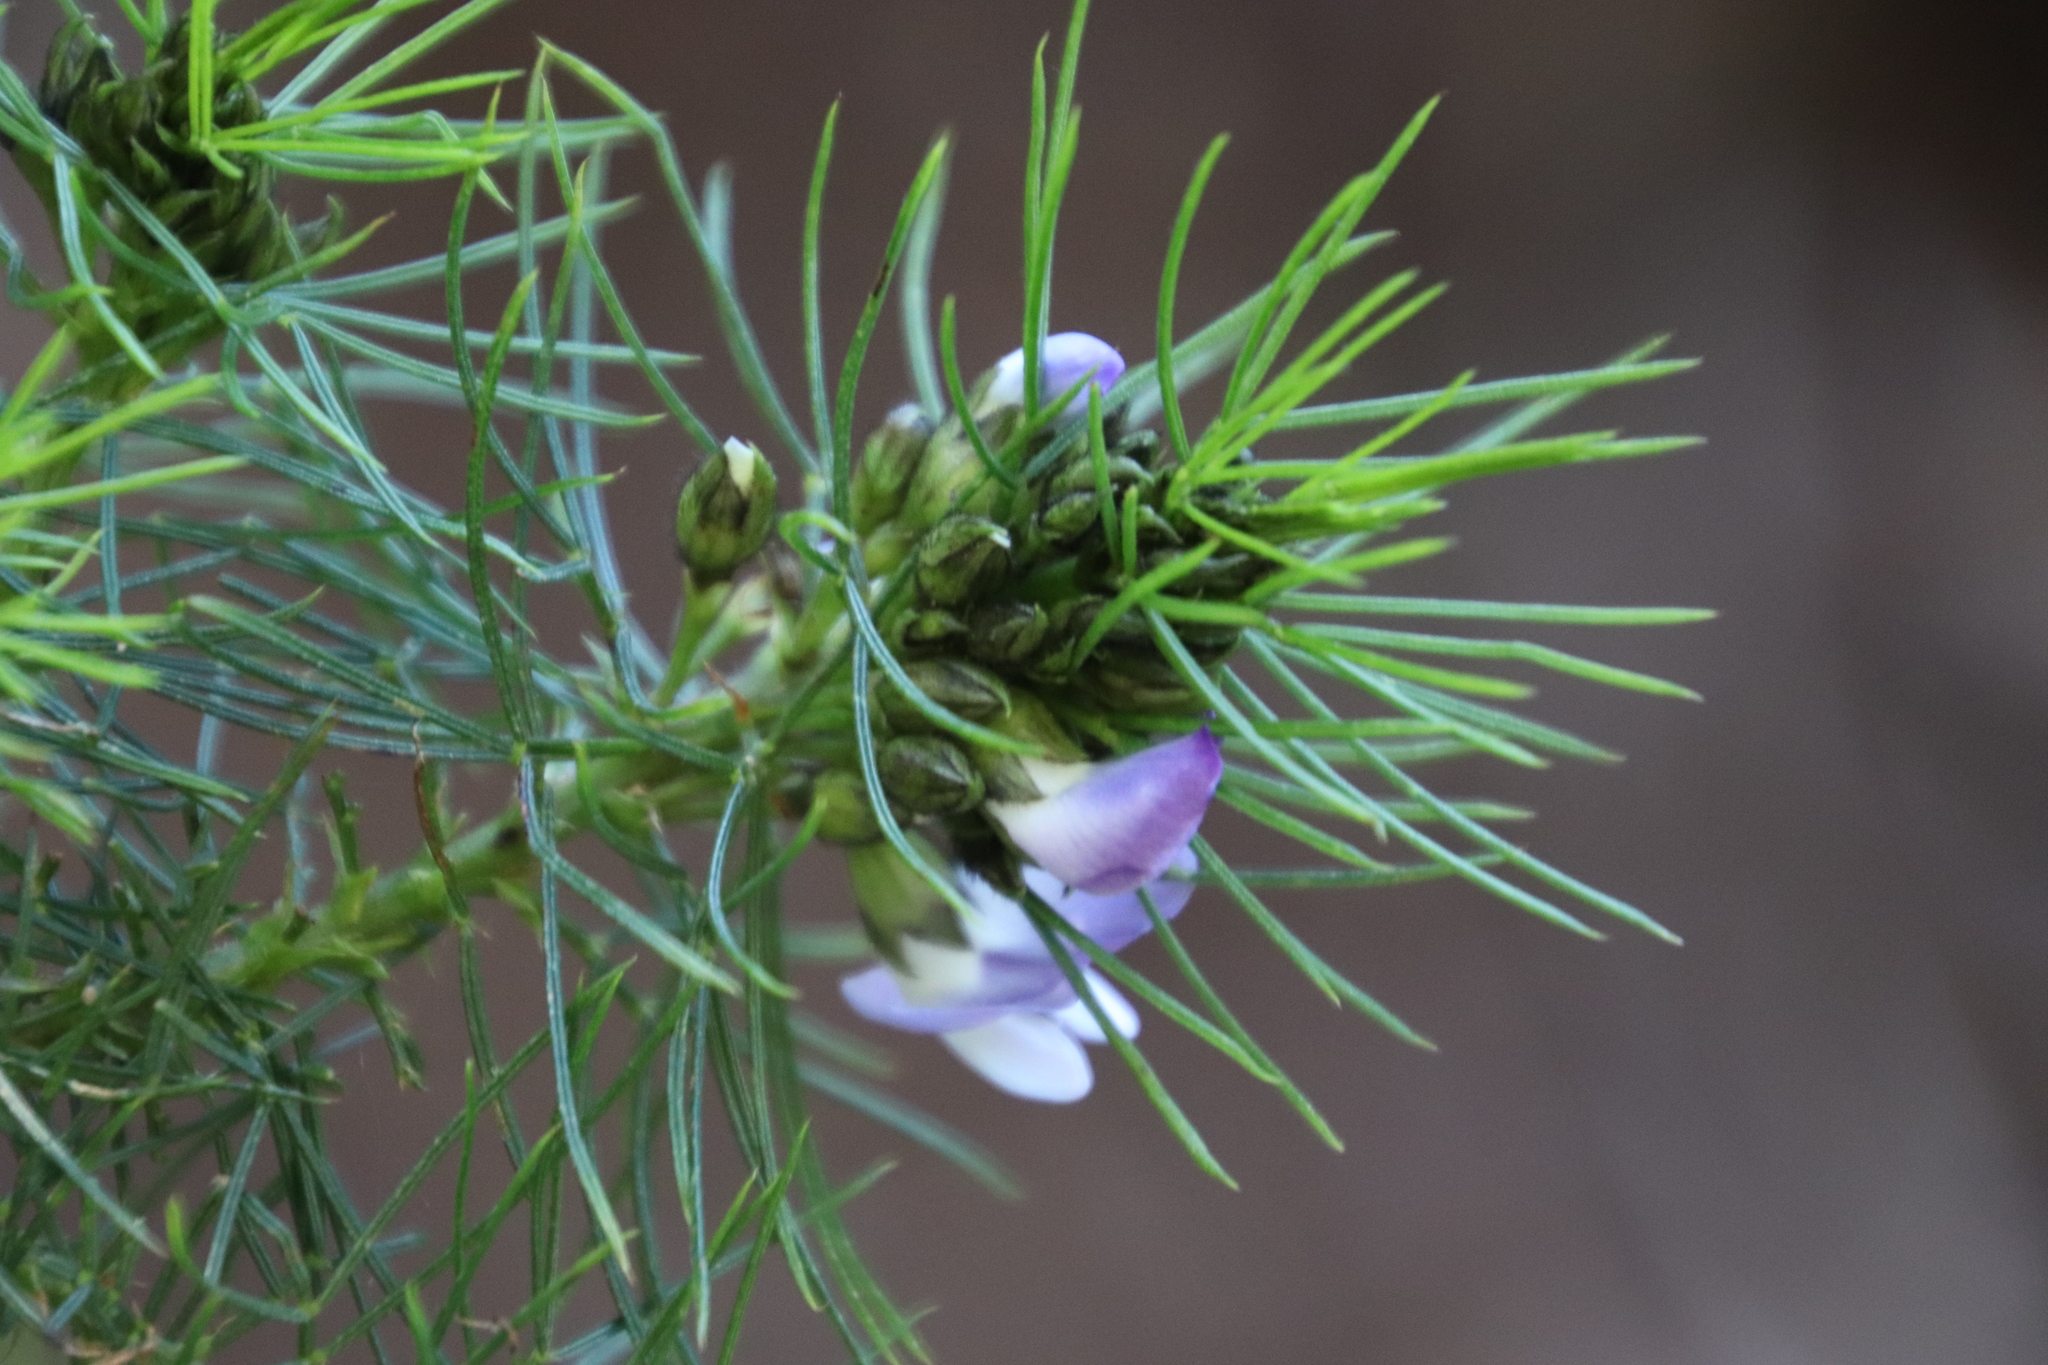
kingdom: Plantae
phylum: Tracheophyta
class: Magnoliopsida
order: Fabales
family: Fabaceae
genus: Psoralea
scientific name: Psoralea pinnata
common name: African scurfpea
